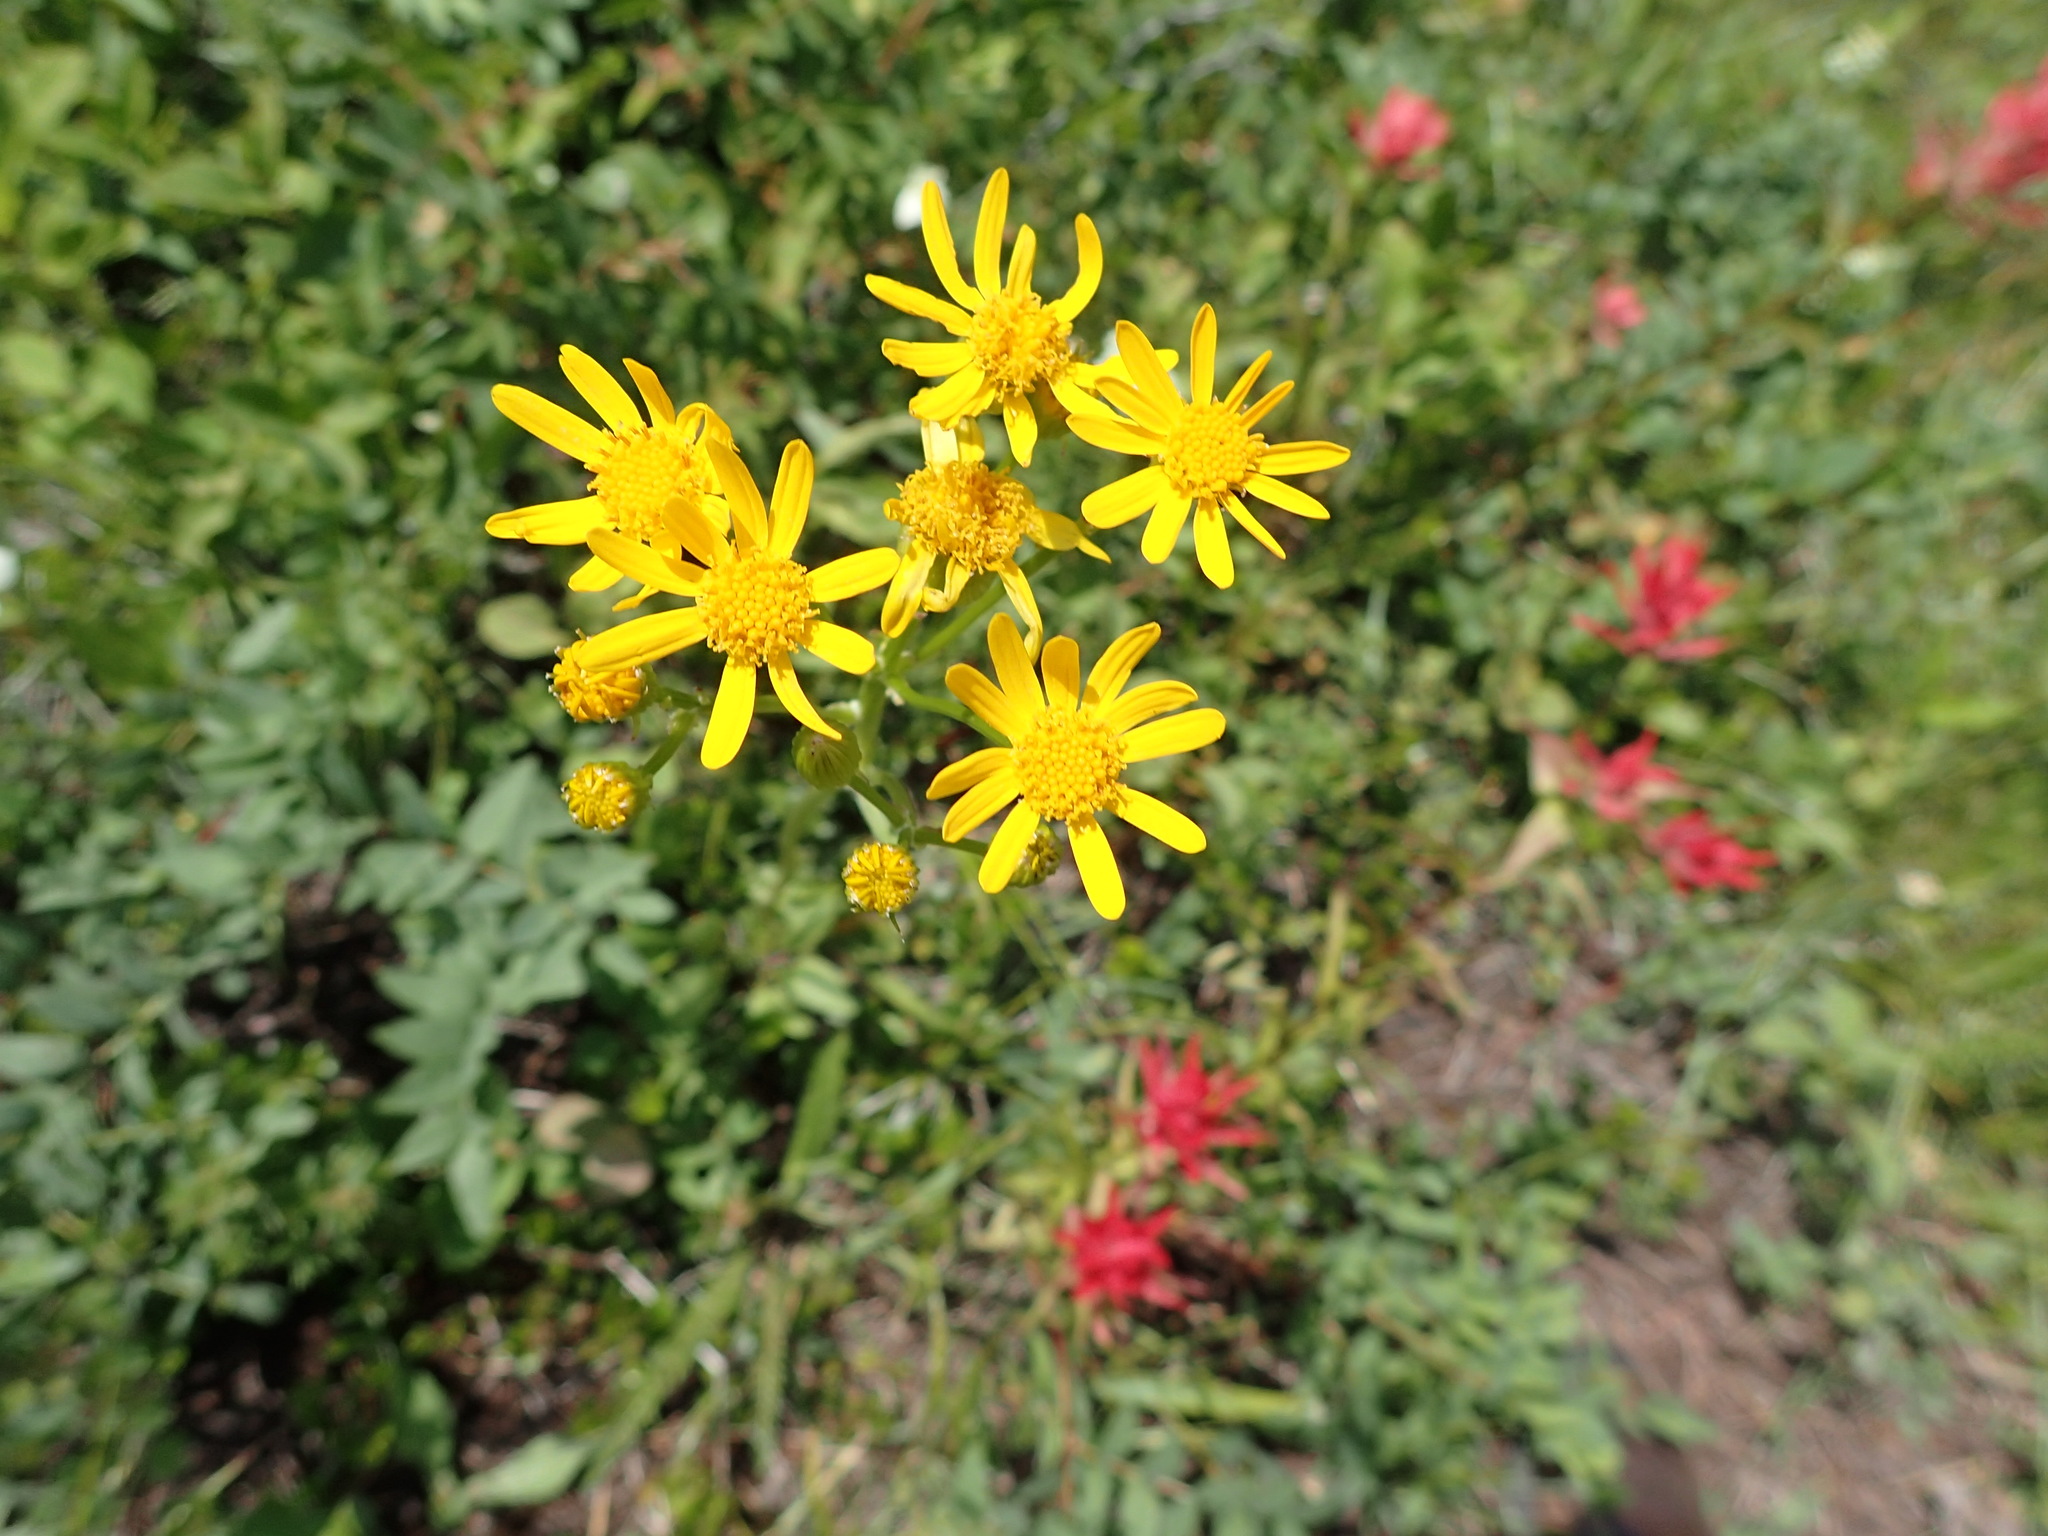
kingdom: Plantae
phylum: Tracheophyta
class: Magnoliopsida
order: Asterales
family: Asteraceae
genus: Packera
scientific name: Packera paupercula
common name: Balsam groundsel
